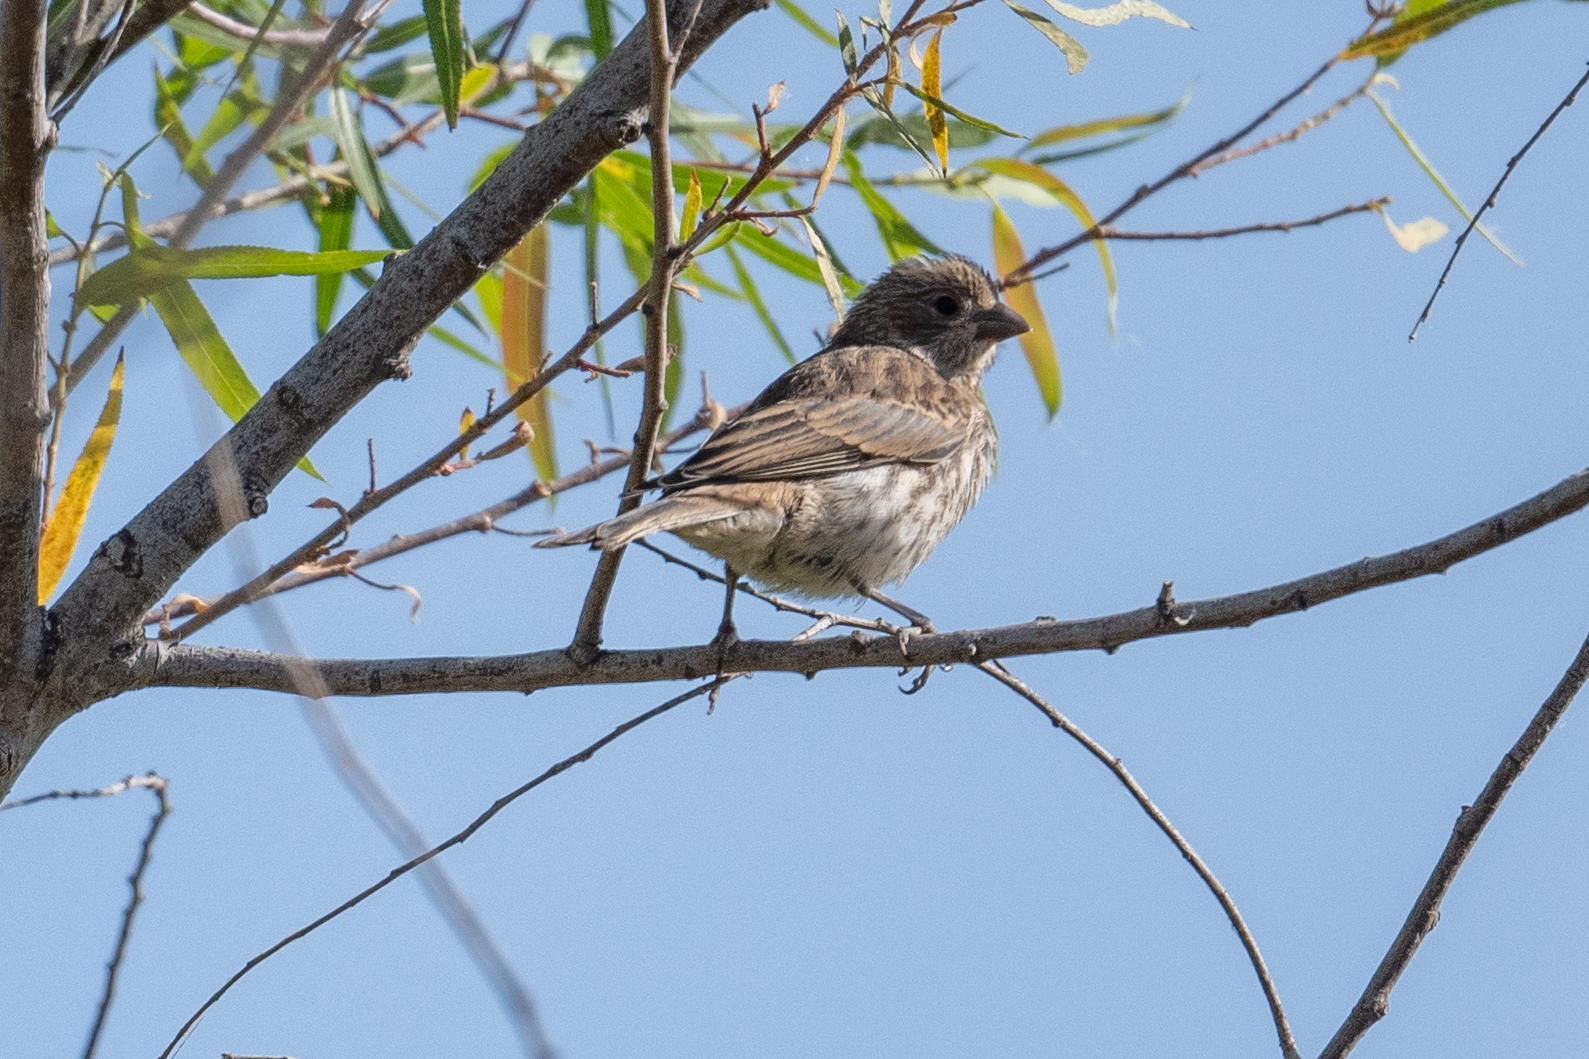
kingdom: Animalia
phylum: Chordata
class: Aves
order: Passeriformes
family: Fringillidae
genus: Haemorhous
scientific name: Haemorhous mexicanus
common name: House finch
